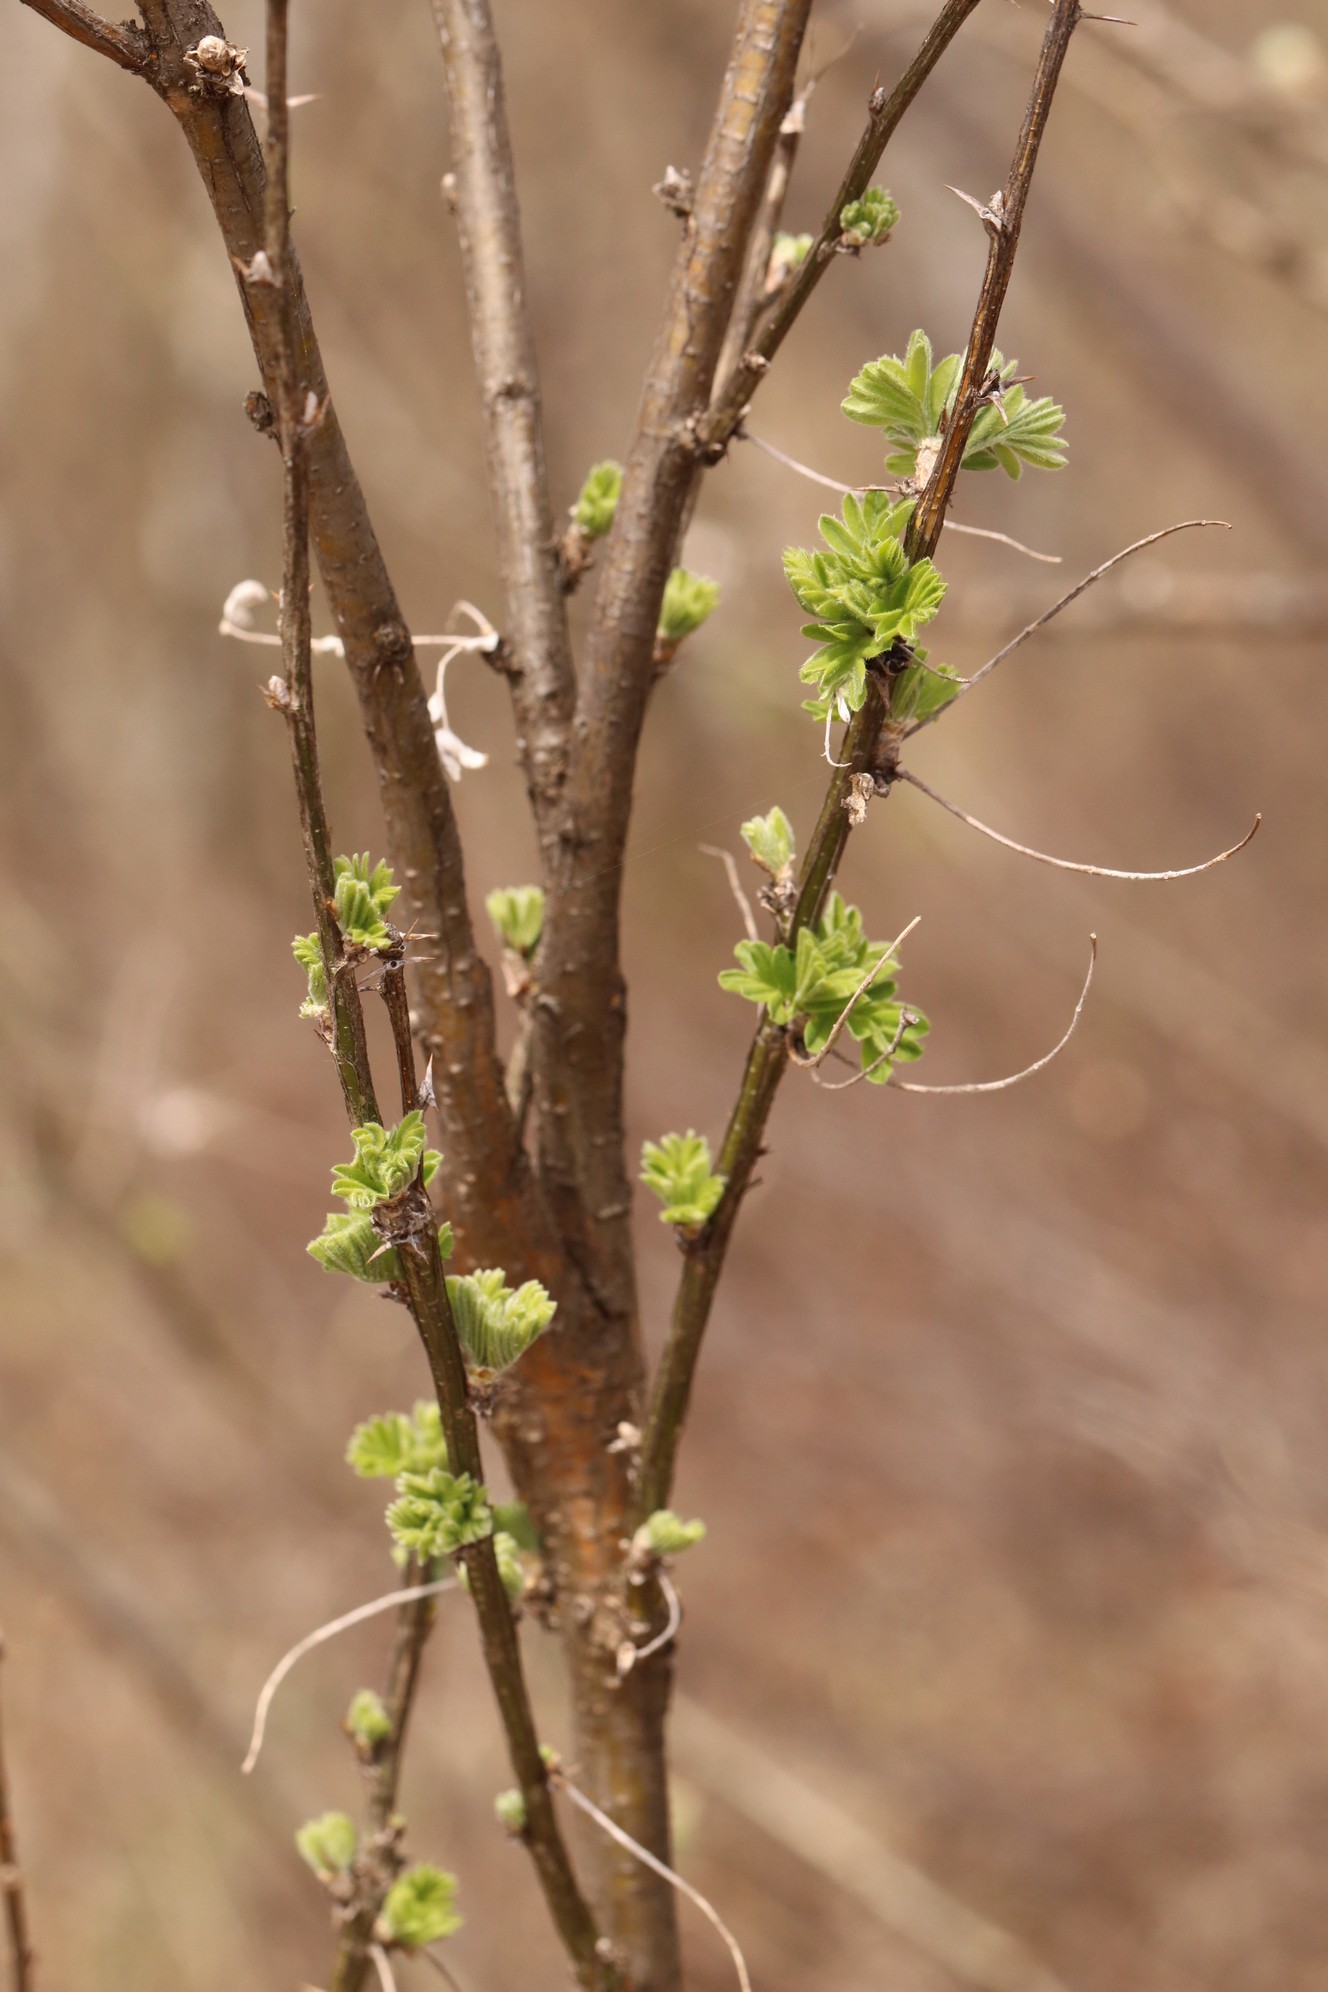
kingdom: Plantae
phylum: Tracheophyta
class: Magnoliopsida
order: Fabales
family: Fabaceae
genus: Caragana
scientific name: Caragana arborescens
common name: Siberian peashrub
